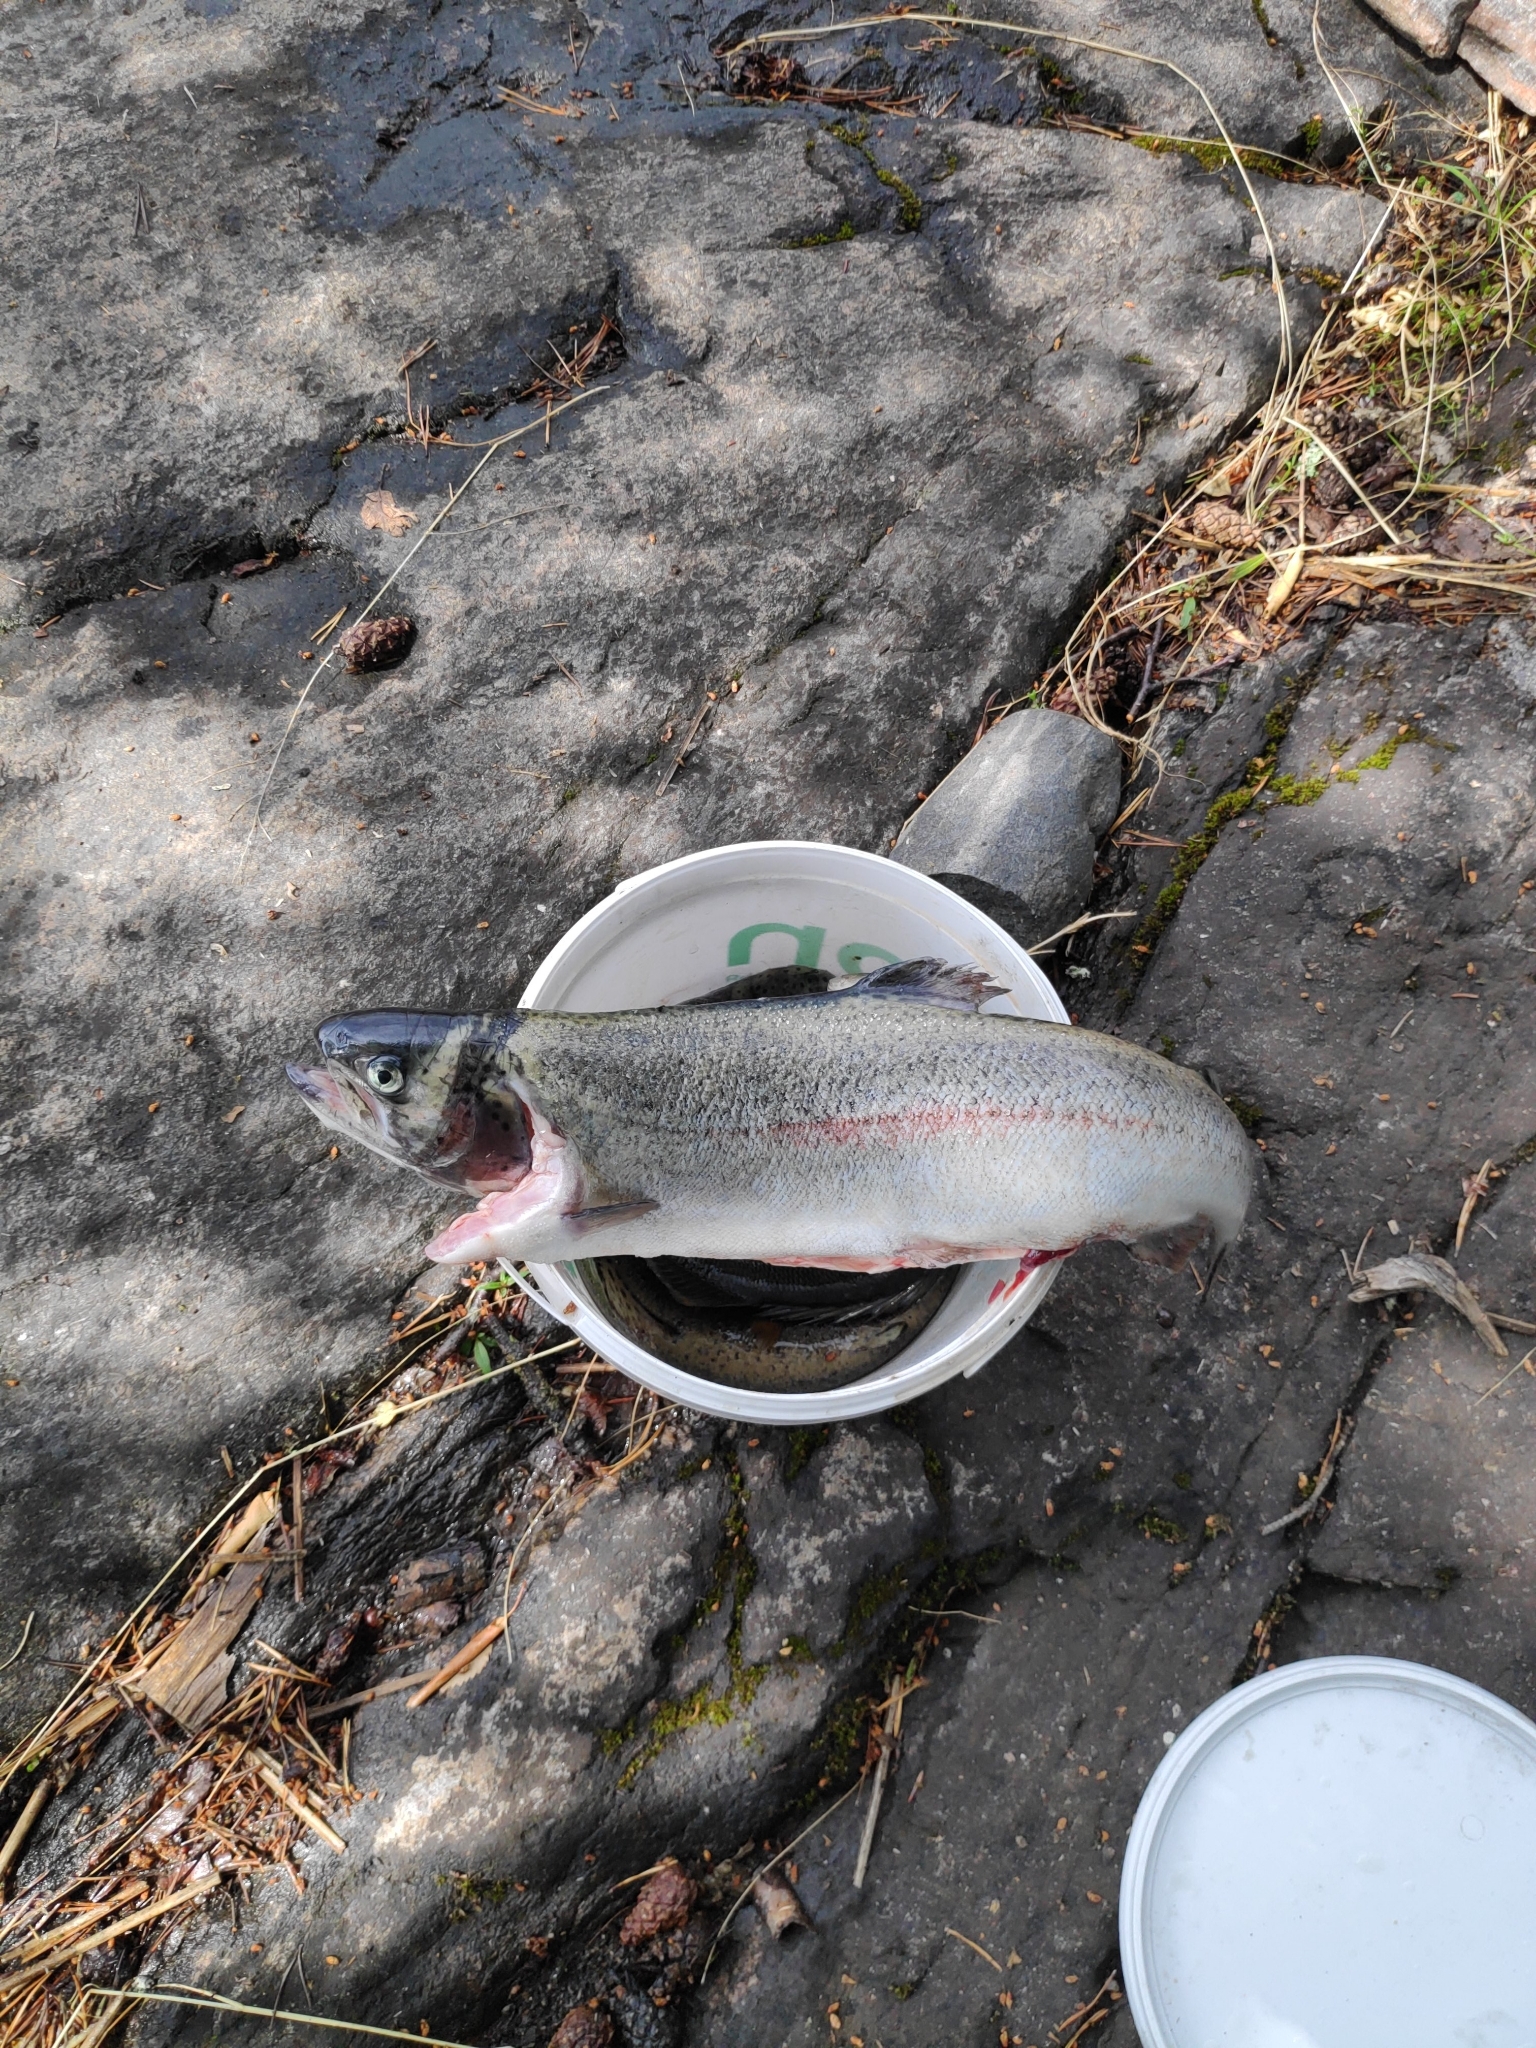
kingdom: Animalia
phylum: Chordata
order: Salmoniformes
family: Salmonidae
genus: Oncorhynchus
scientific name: Oncorhynchus mykiss
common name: Rainbow trout
